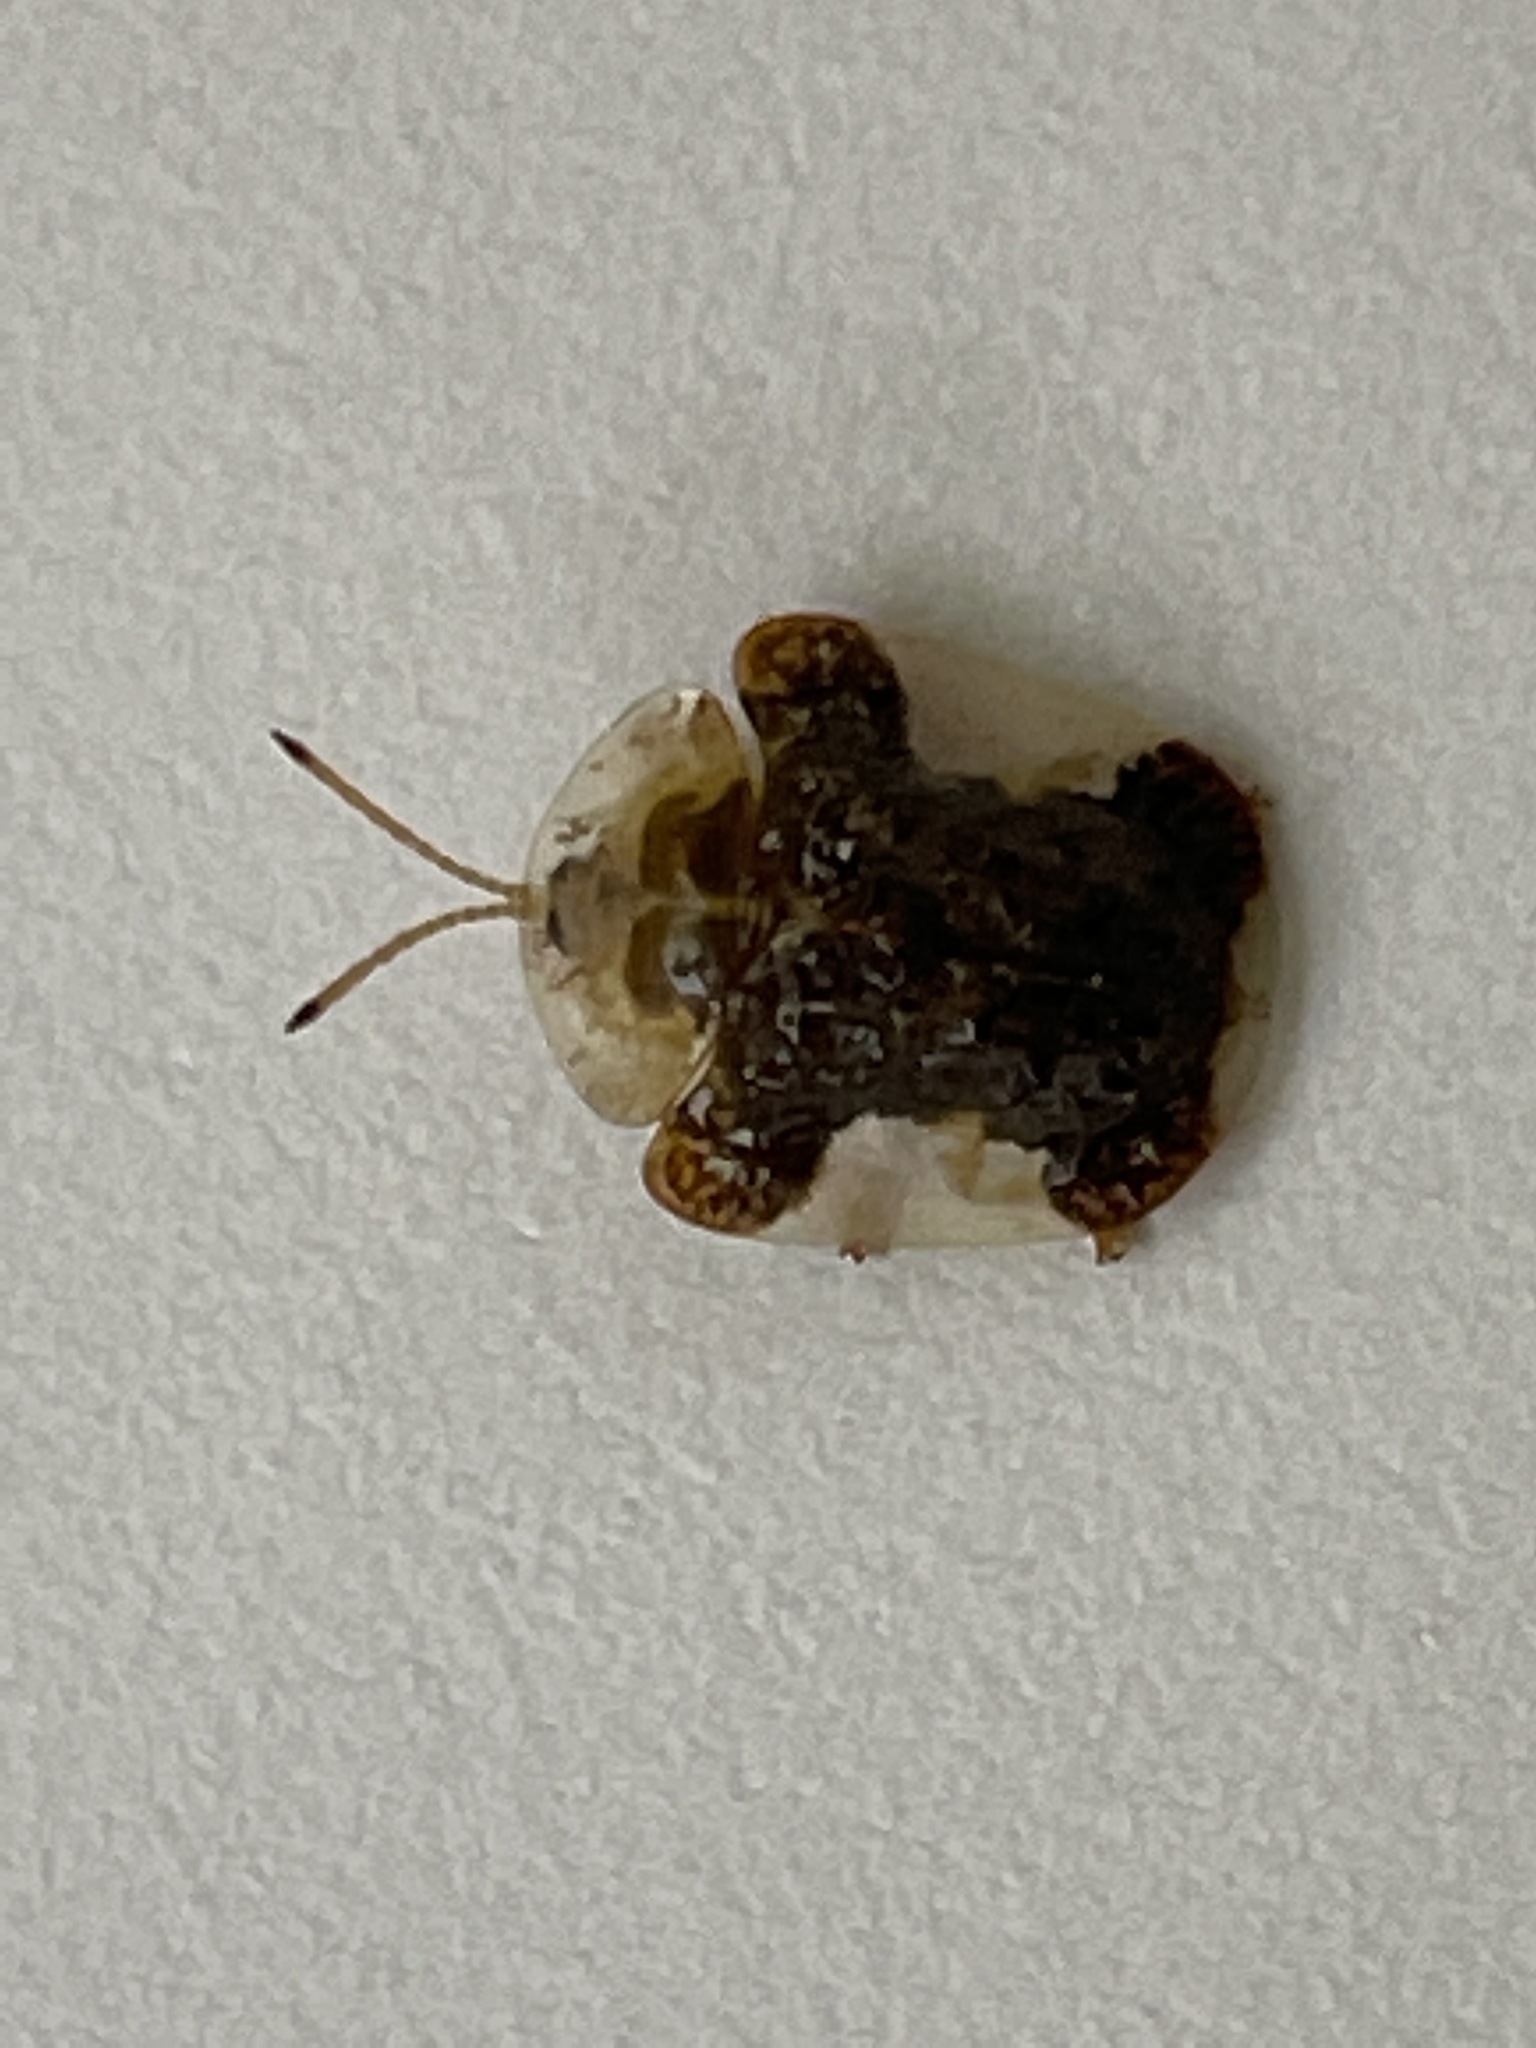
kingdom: Animalia
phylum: Arthropoda
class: Insecta
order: Coleoptera
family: Chrysomelidae
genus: Helocassis
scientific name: Helocassis clavata
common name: Clavate tortoise beetle
